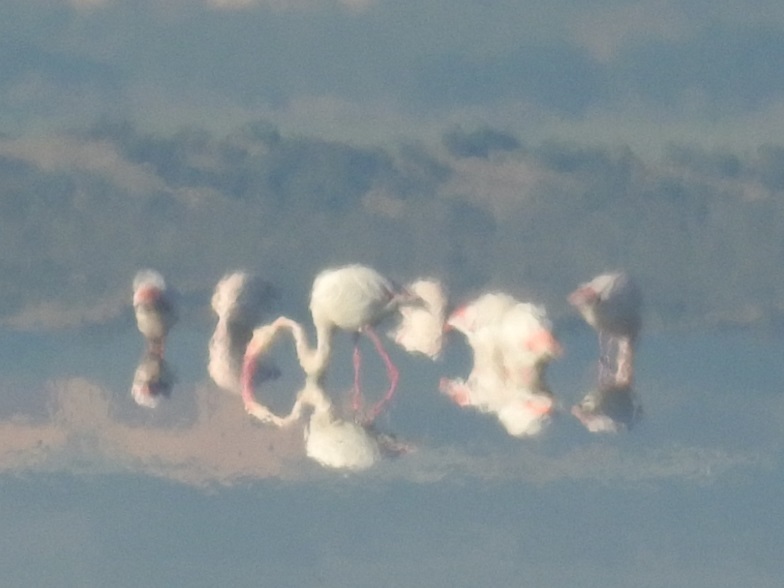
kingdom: Animalia
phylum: Chordata
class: Aves
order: Phoenicopteriformes
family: Phoenicopteridae
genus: Phoenicopterus
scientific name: Phoenicopterus roseus
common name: Greater flamingo
